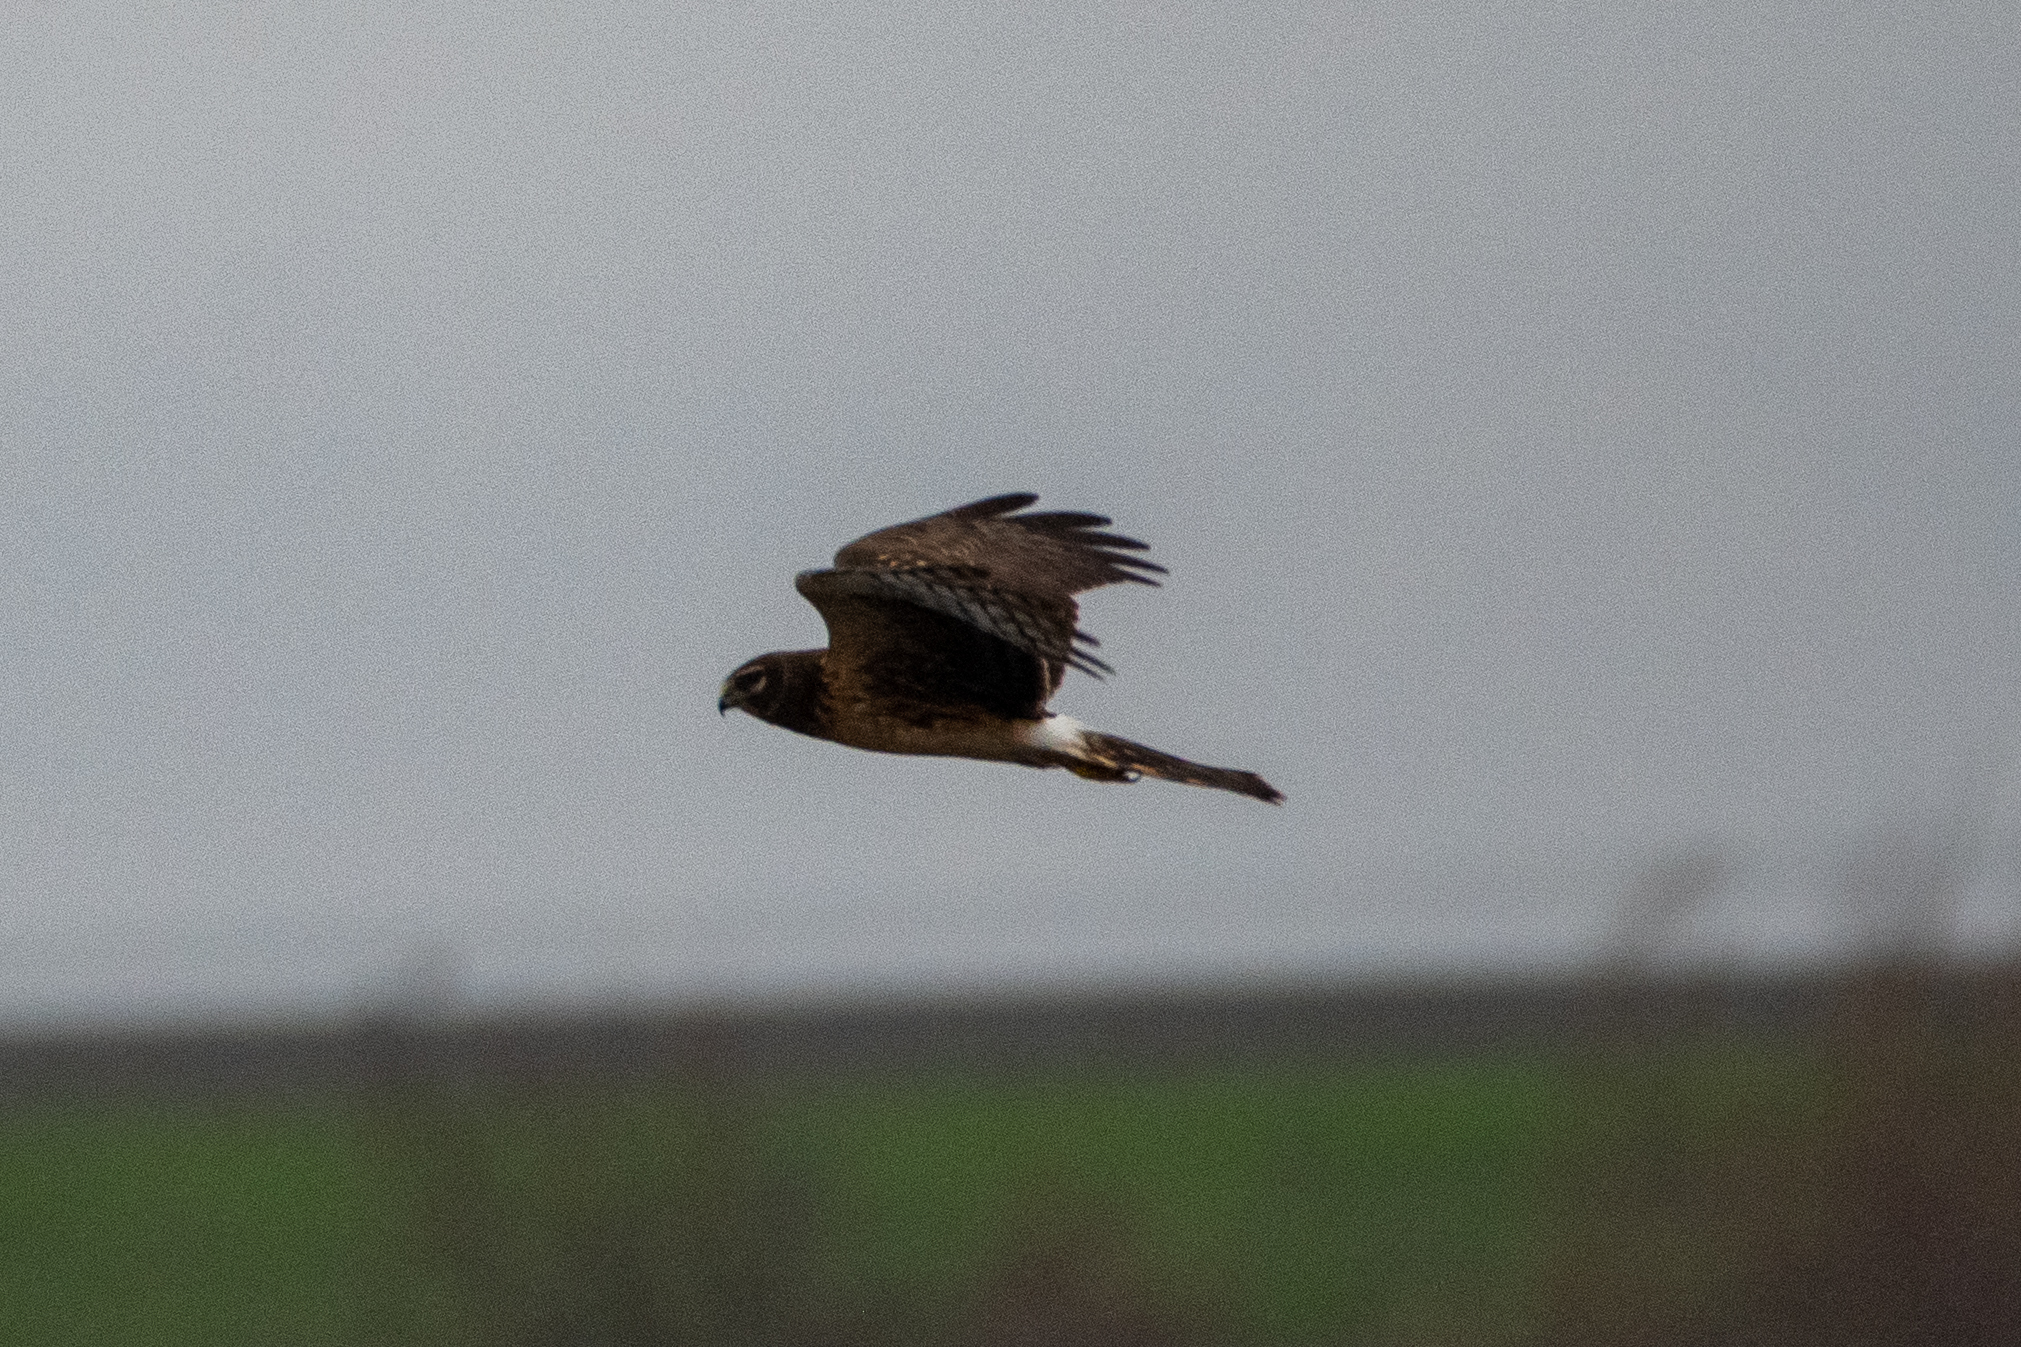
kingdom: Animalia
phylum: Chordata
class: Aves
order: Accipitriformes
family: Accipitridae
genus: Circus
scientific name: Circus cyaneus
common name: Hen harrier
